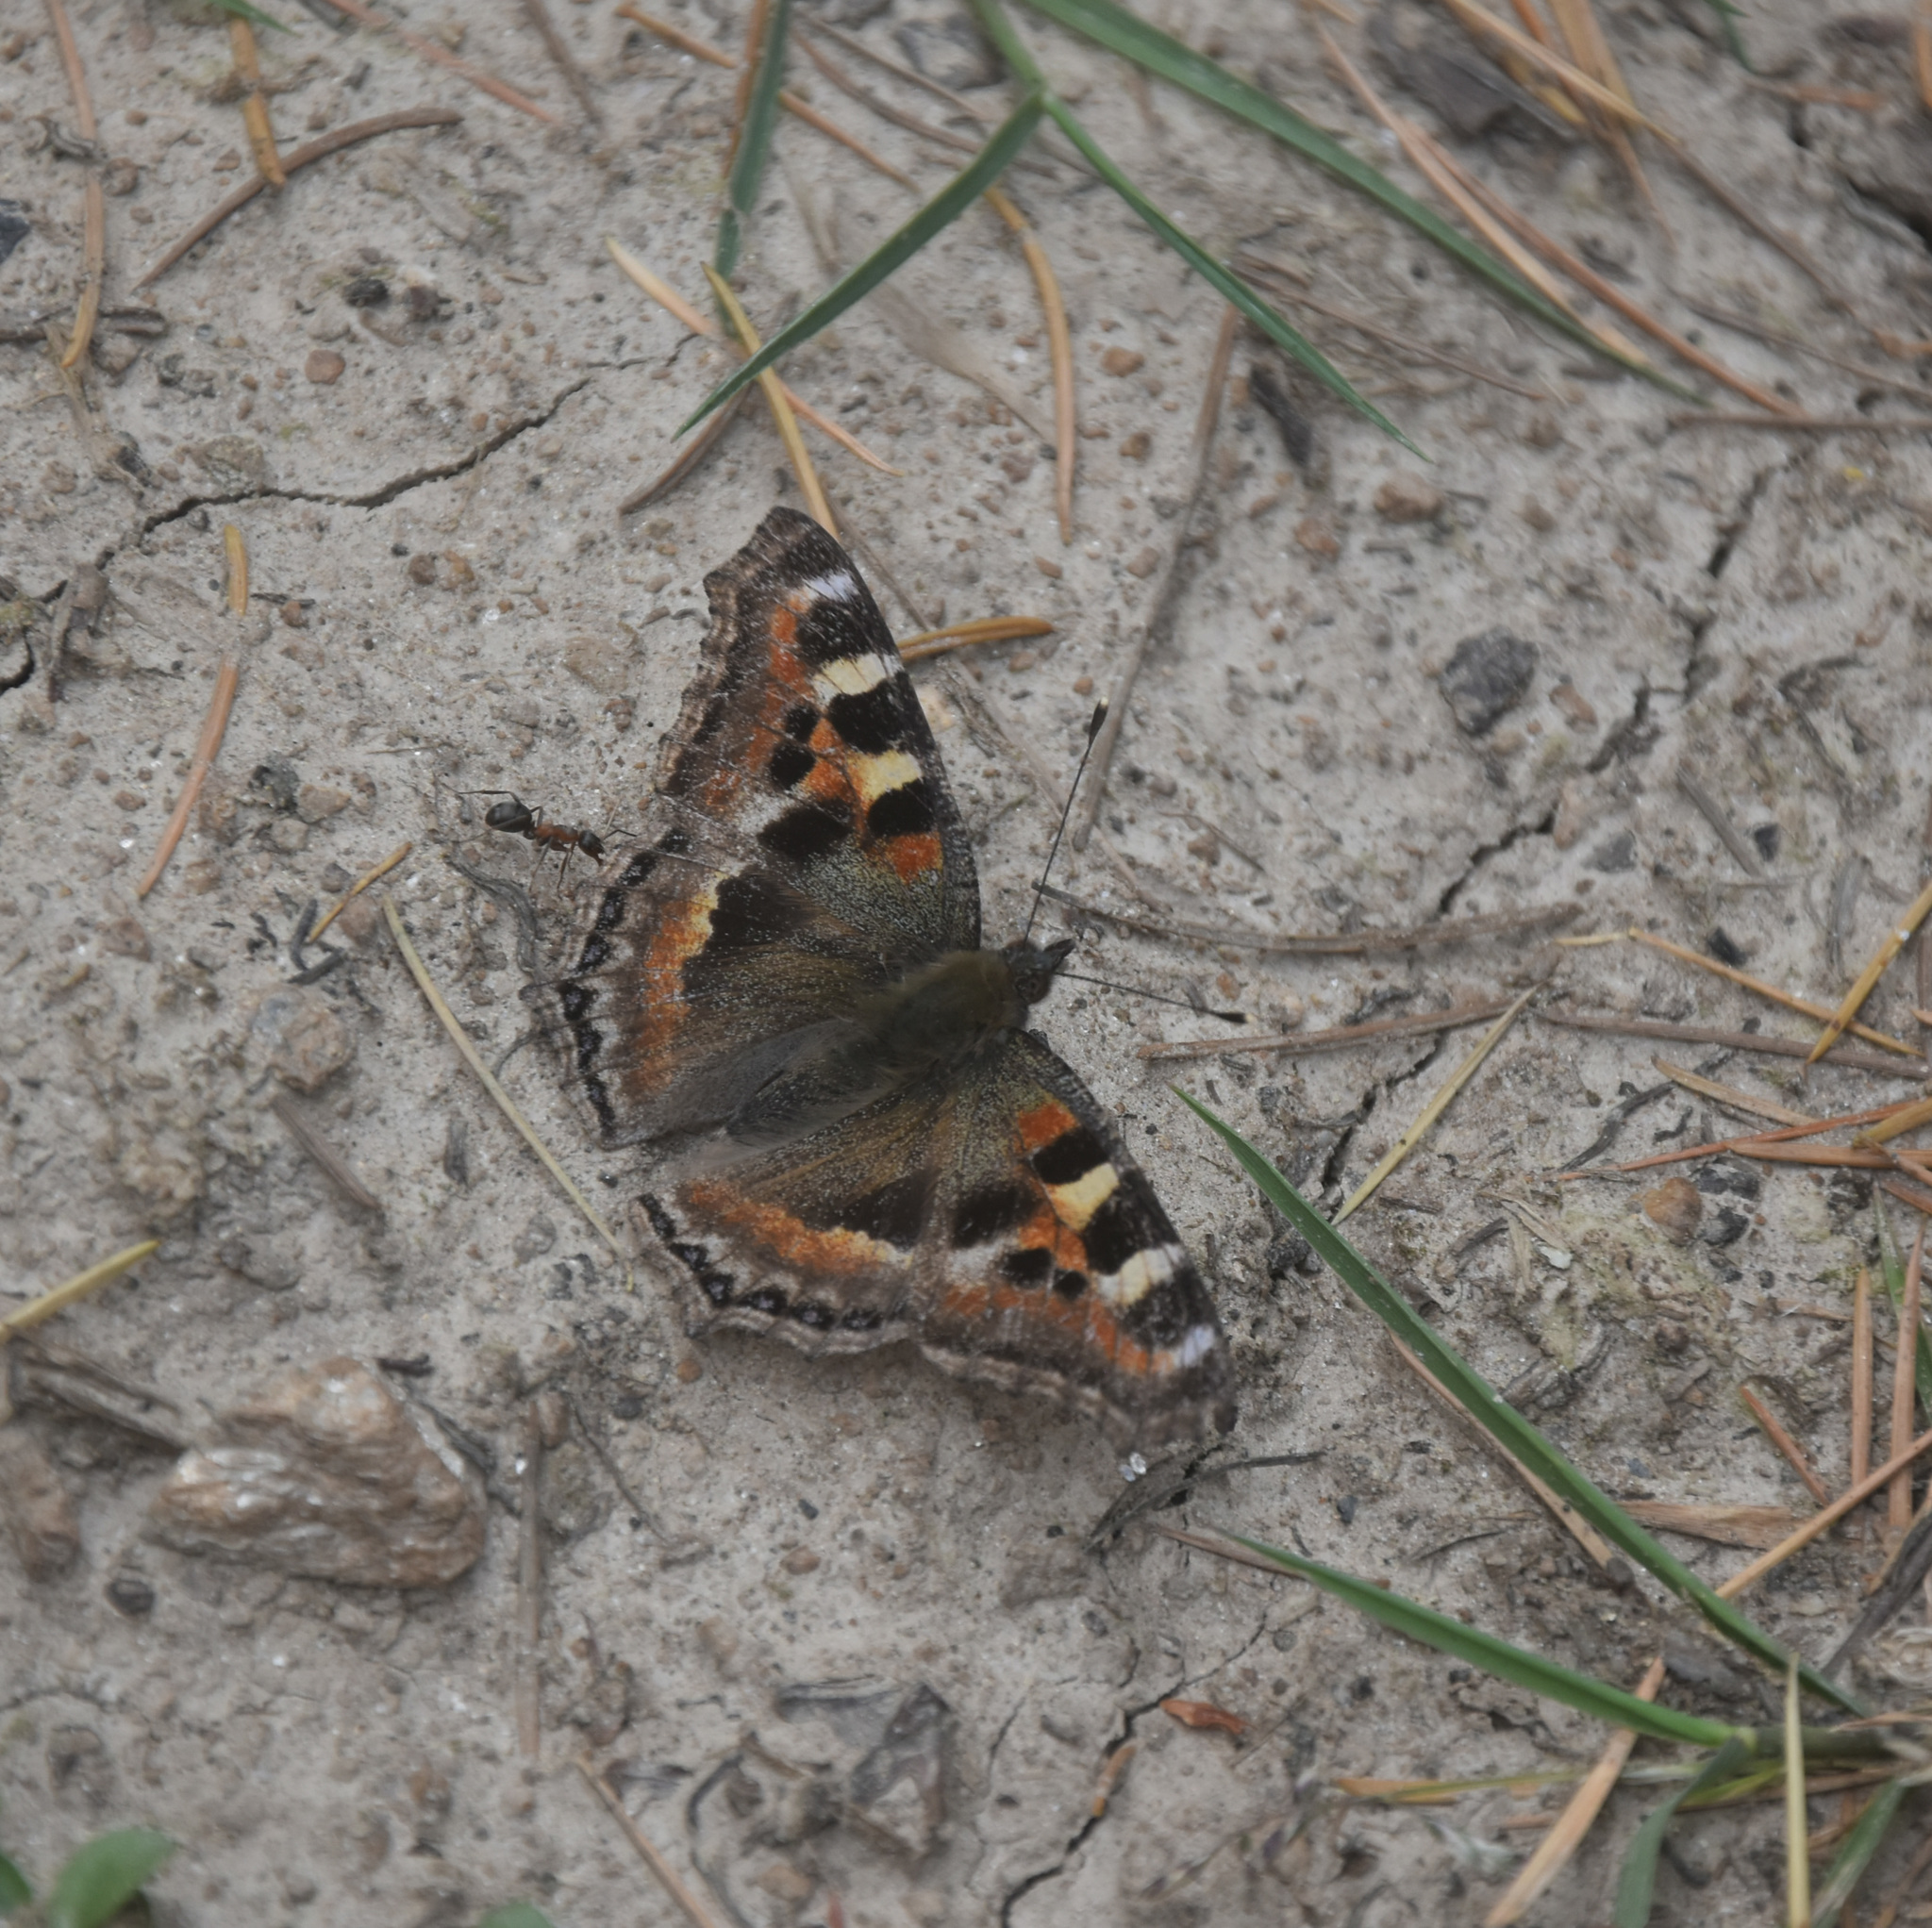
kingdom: Animalia
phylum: Arthropoda
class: Insecta
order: Lepidoptera
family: Nymphalidae
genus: Aglais
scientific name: Aglais caschmirensis
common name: Indian tortoiseshell
